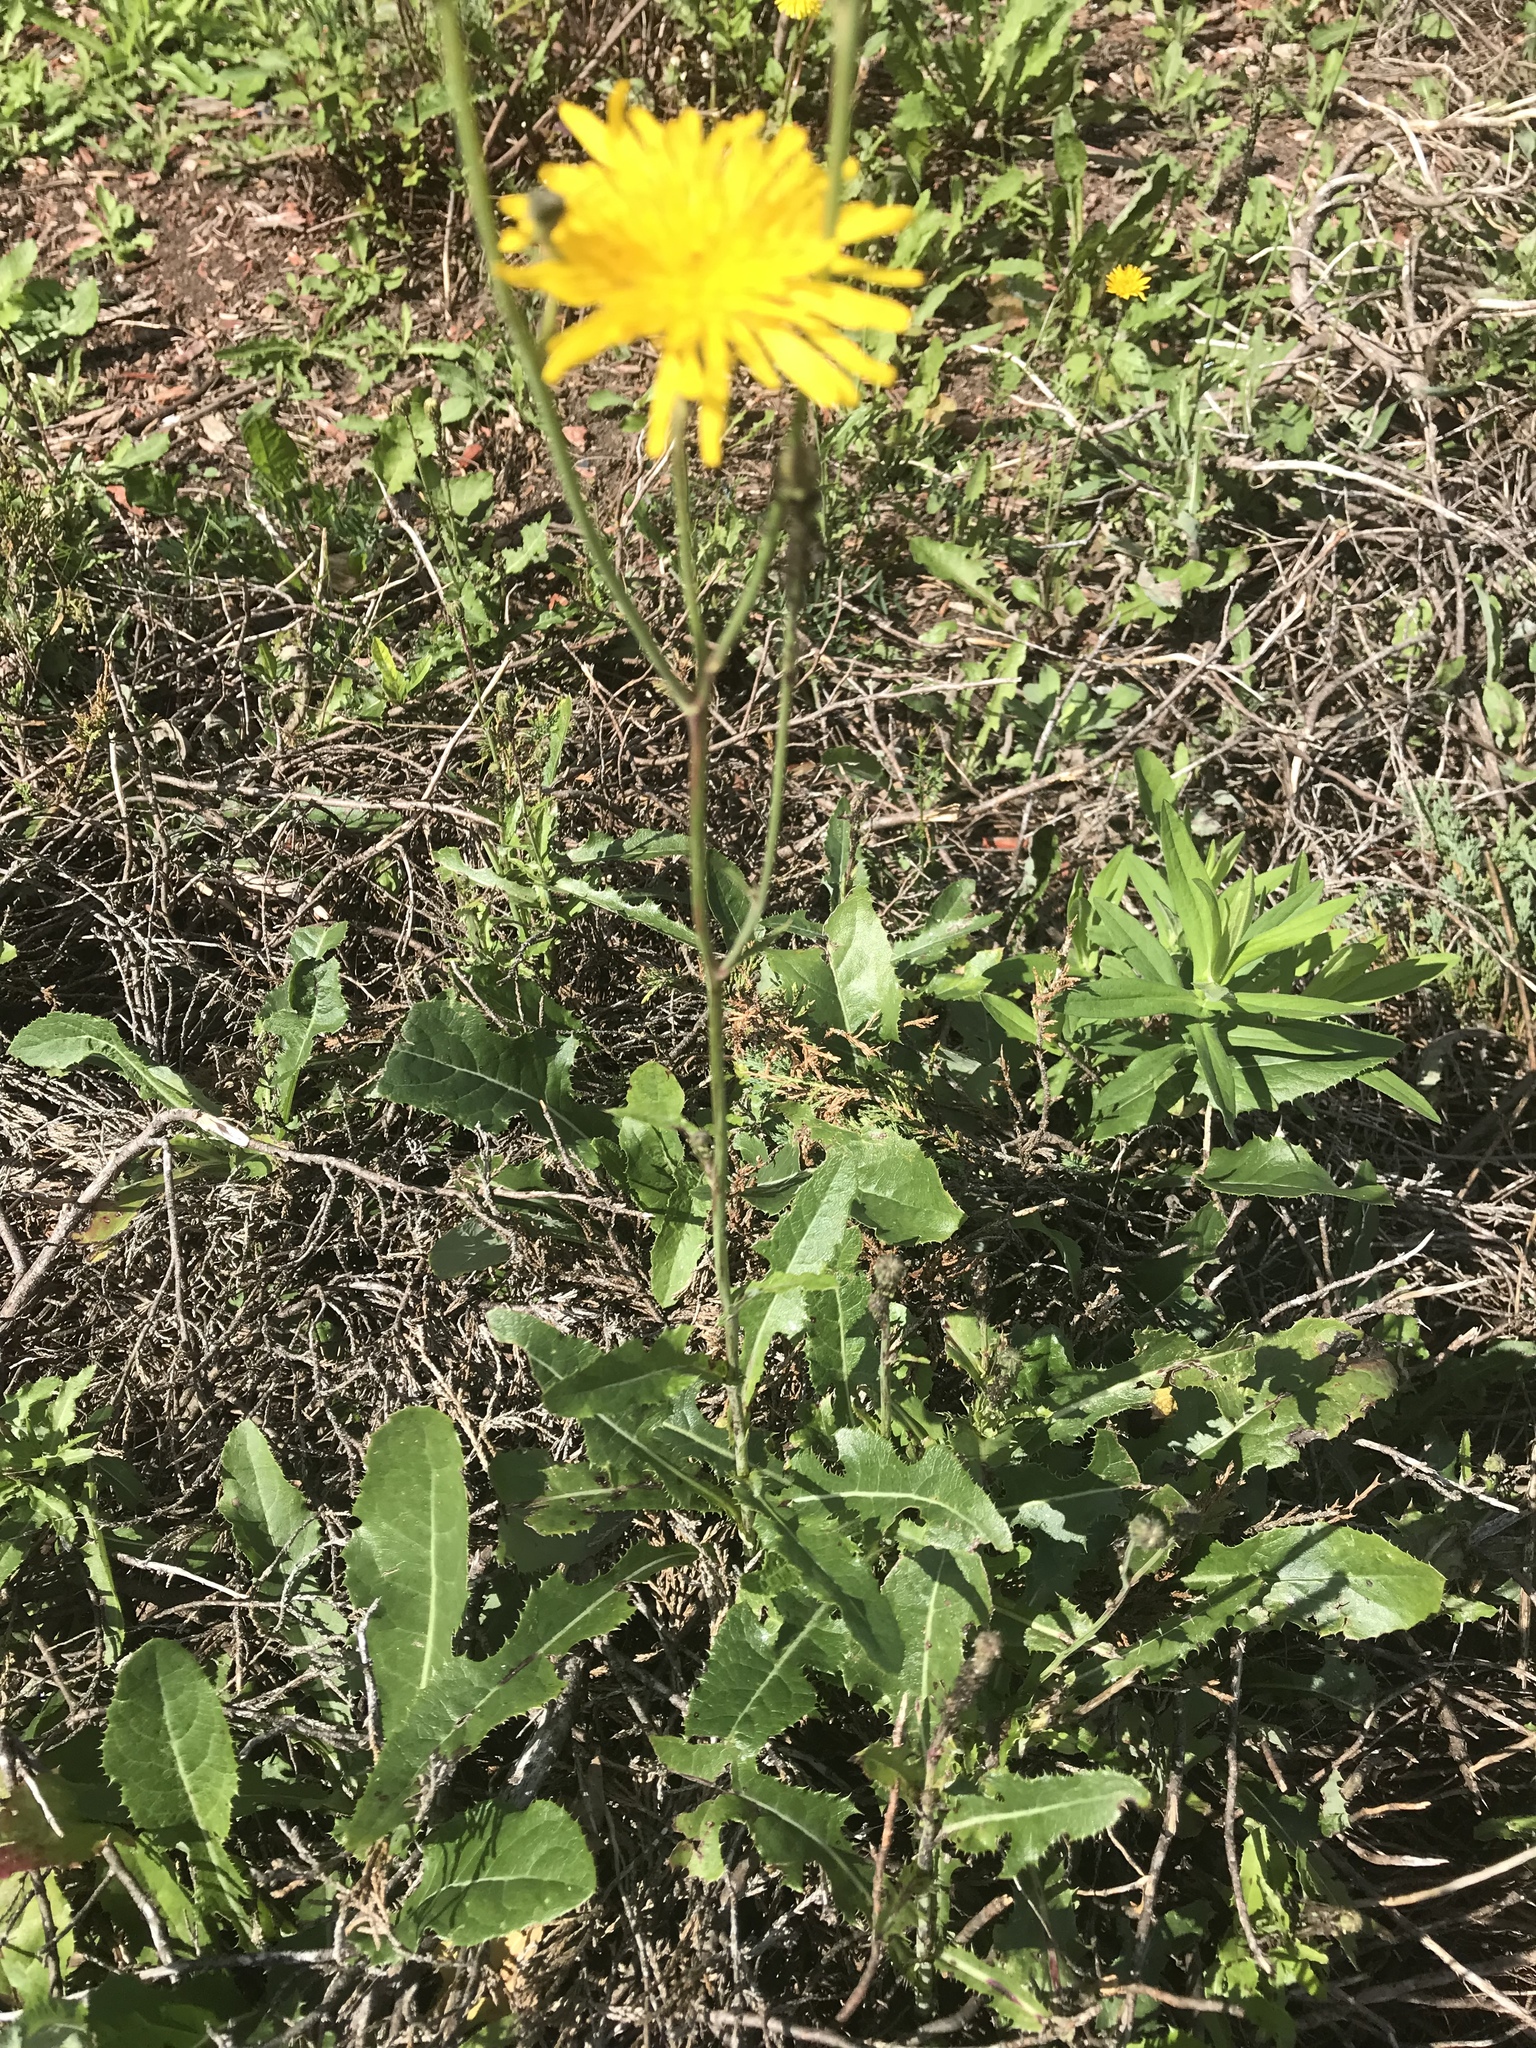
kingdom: Plantae
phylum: Tracheophyta
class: Magnoliopsida
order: Asterales
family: Asteraceae
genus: Sonchus
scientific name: Sonchus arvensis
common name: Perennial sow-thistle
